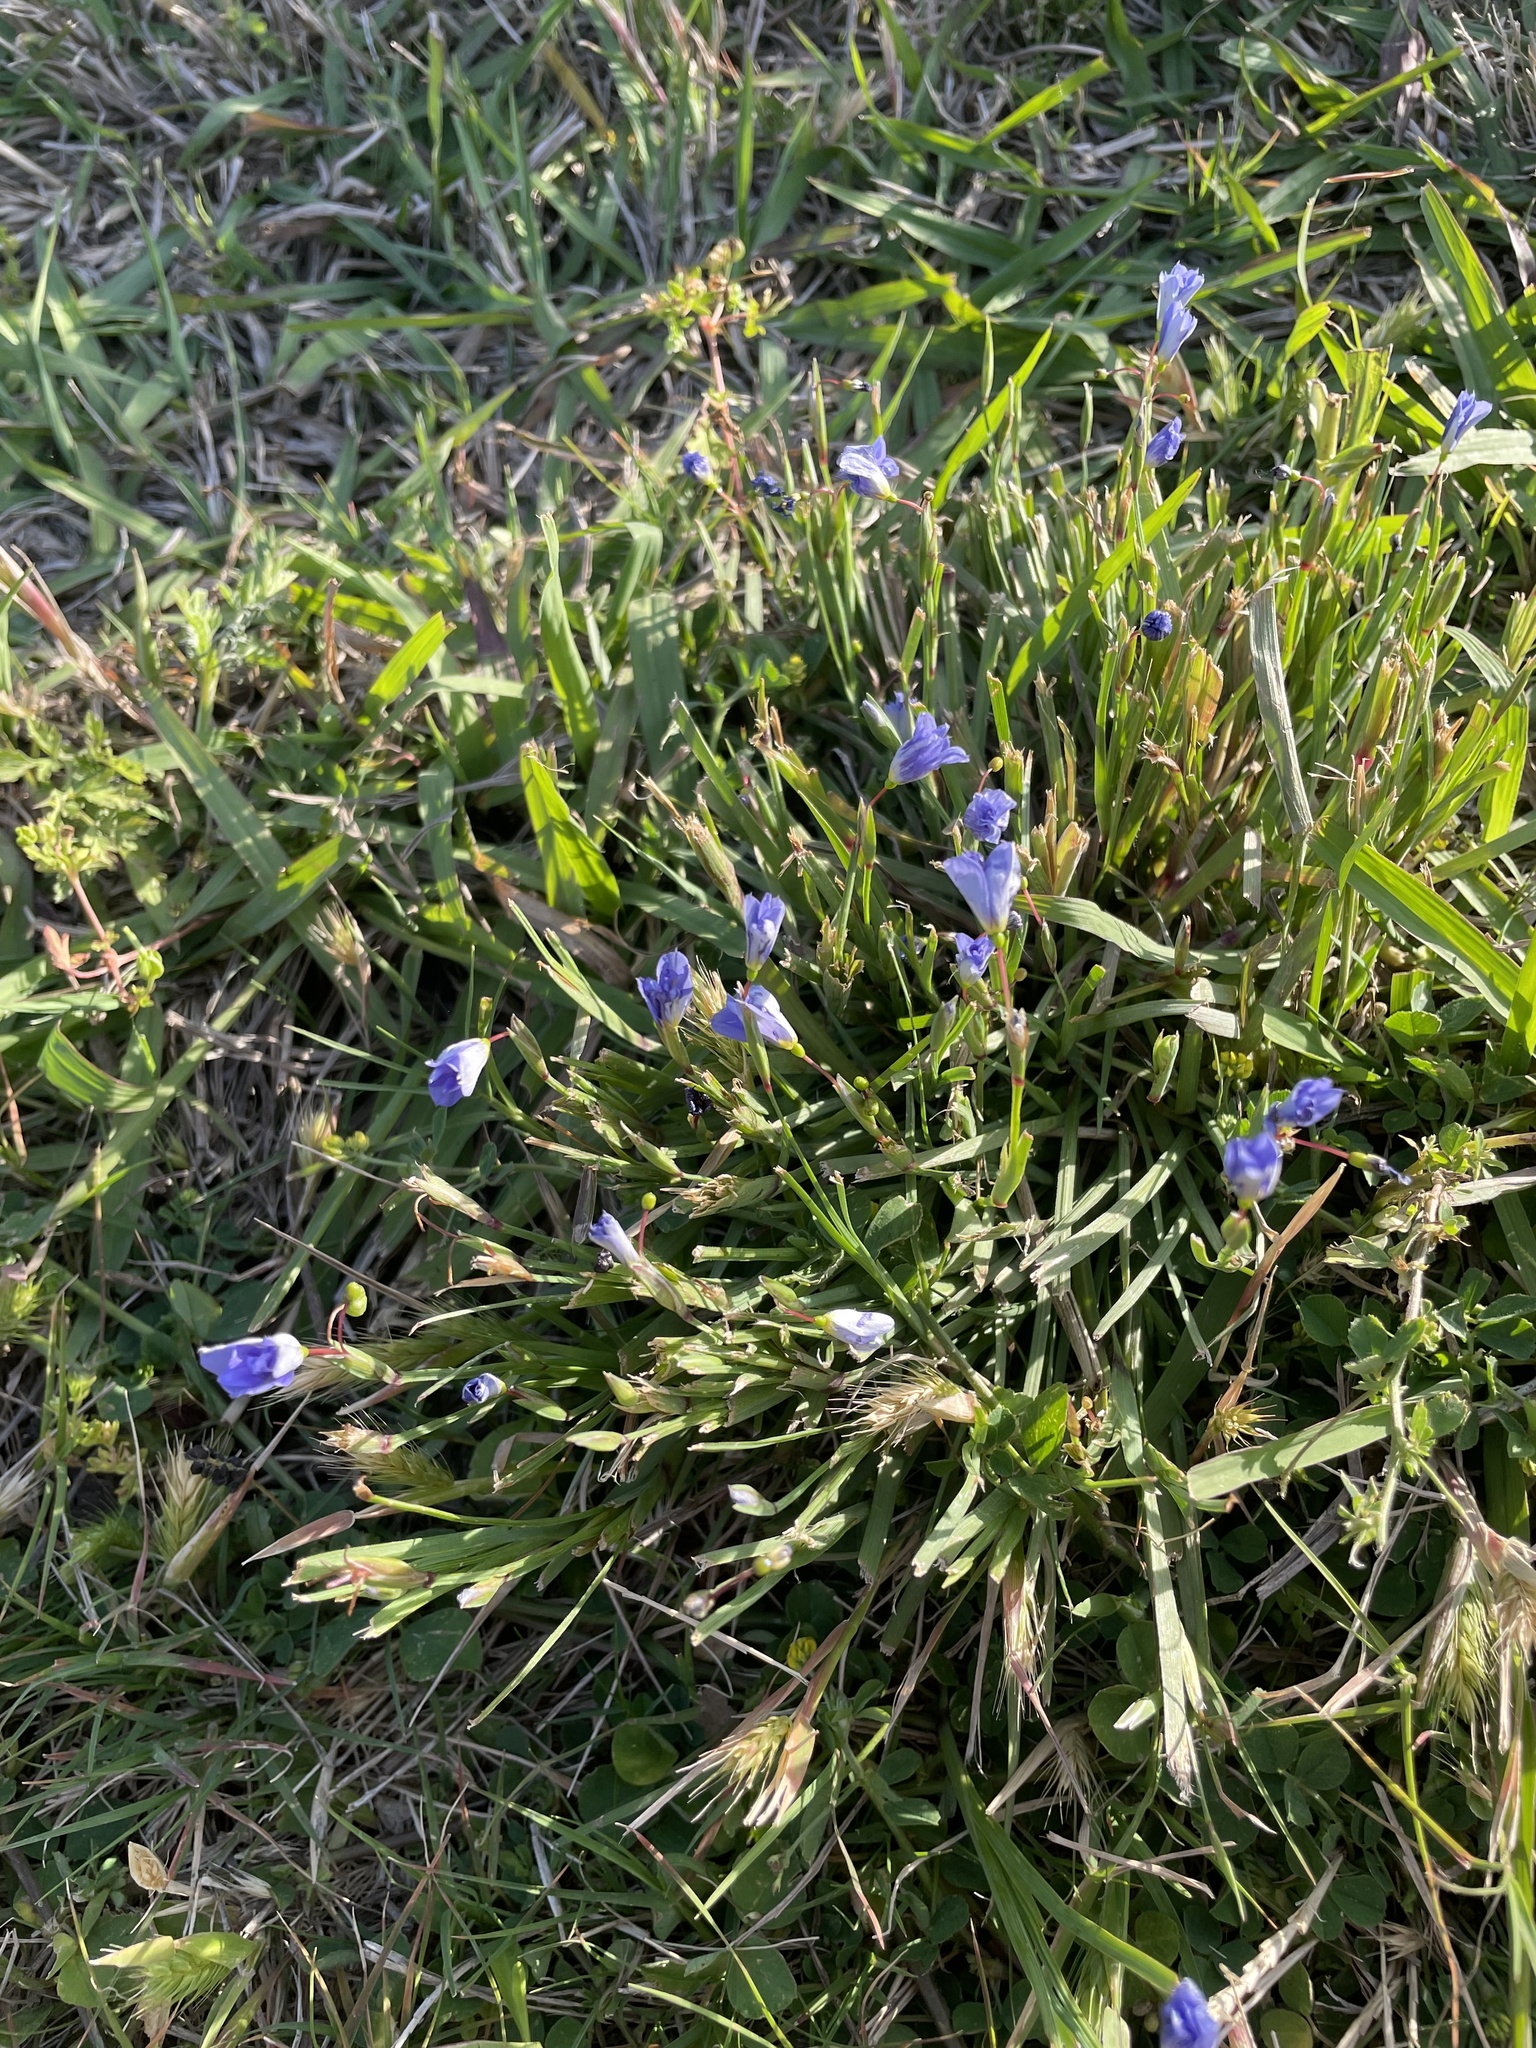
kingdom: Plantae
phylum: Tracheophyta
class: Liliopsida
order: Asparagales
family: Iridaceae
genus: Sisyrinchium
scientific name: Sisyrinchium pruinosum
